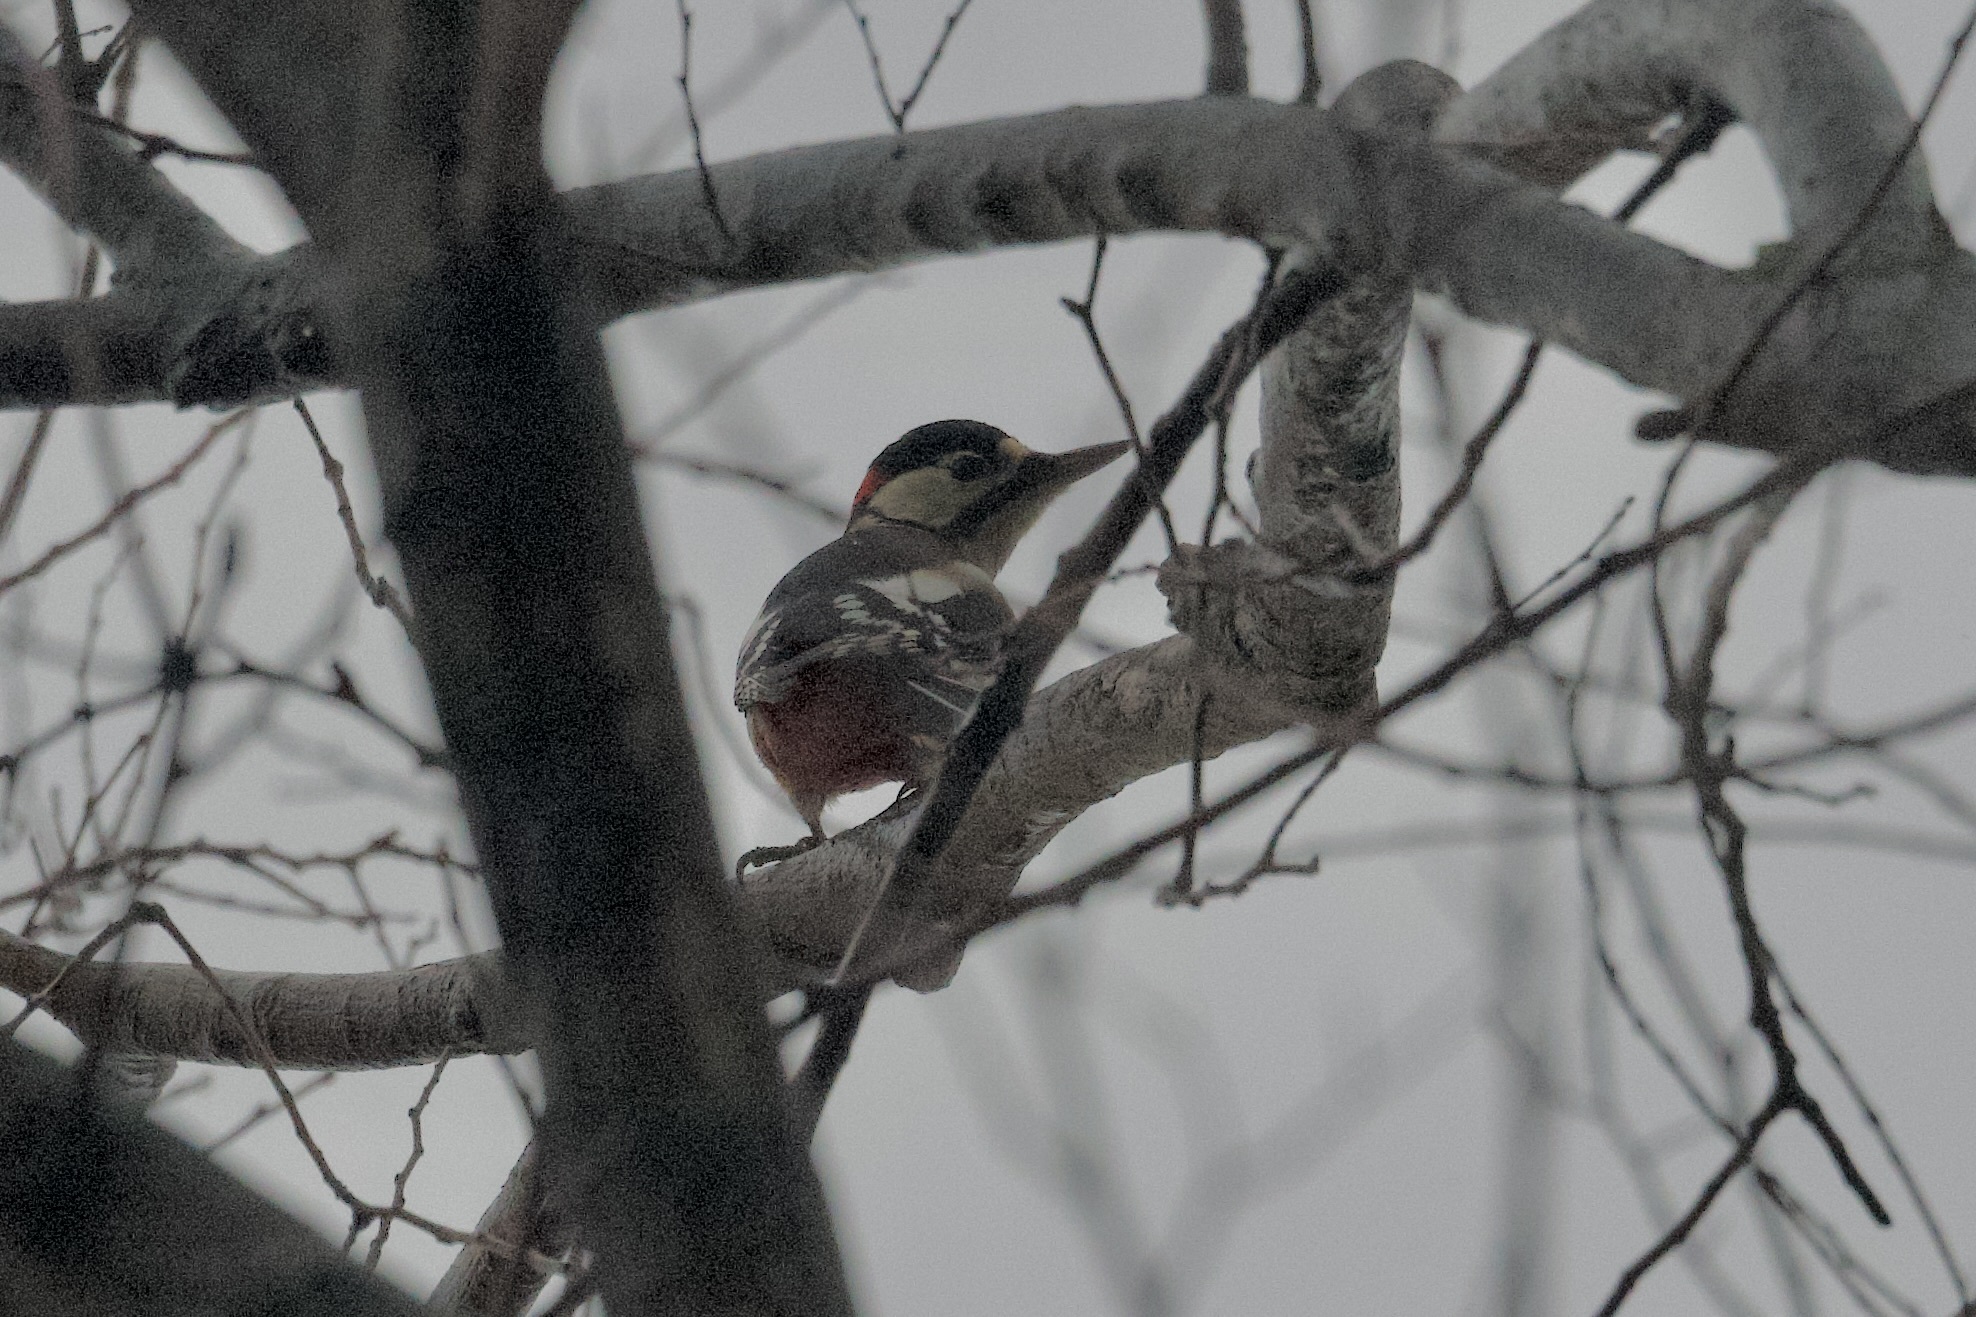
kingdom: Animalia
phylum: Chordata
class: Aves
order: Piciformes
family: Picidae
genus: Dendrocopos
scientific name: Dendrocopos major
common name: Great spotted woodpecker
